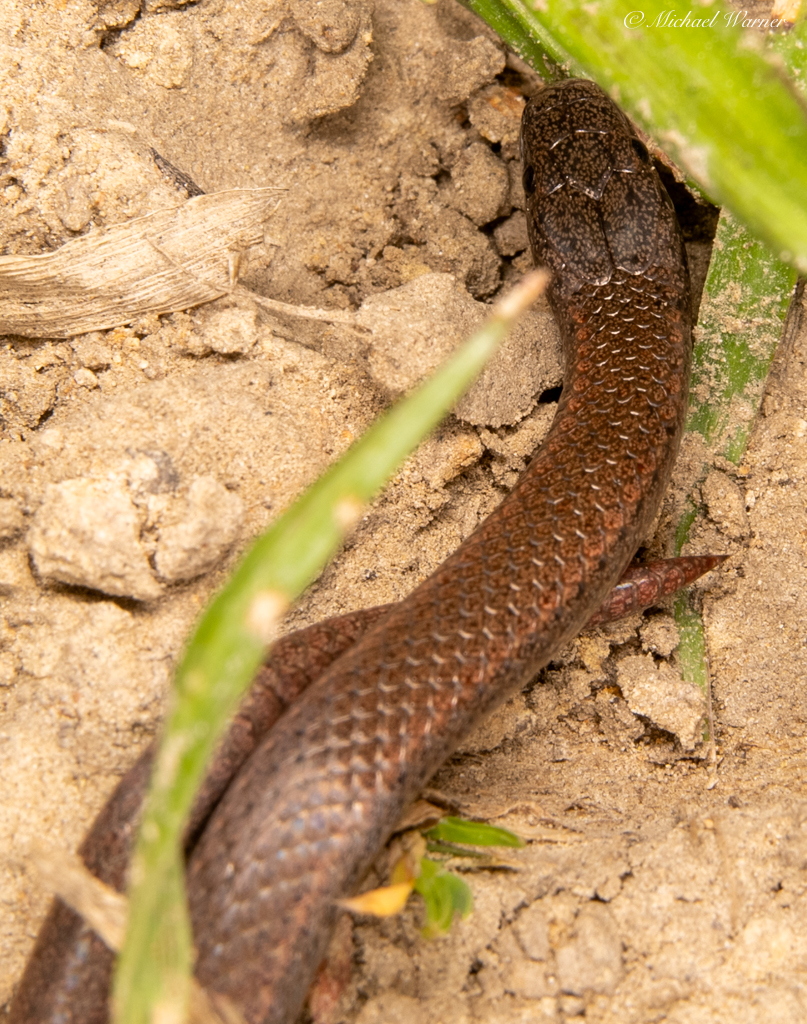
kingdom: Animalia
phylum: Chordata
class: Squamata
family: Colubridae
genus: Contia
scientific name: Contia tenuis
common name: Sharptail snake
